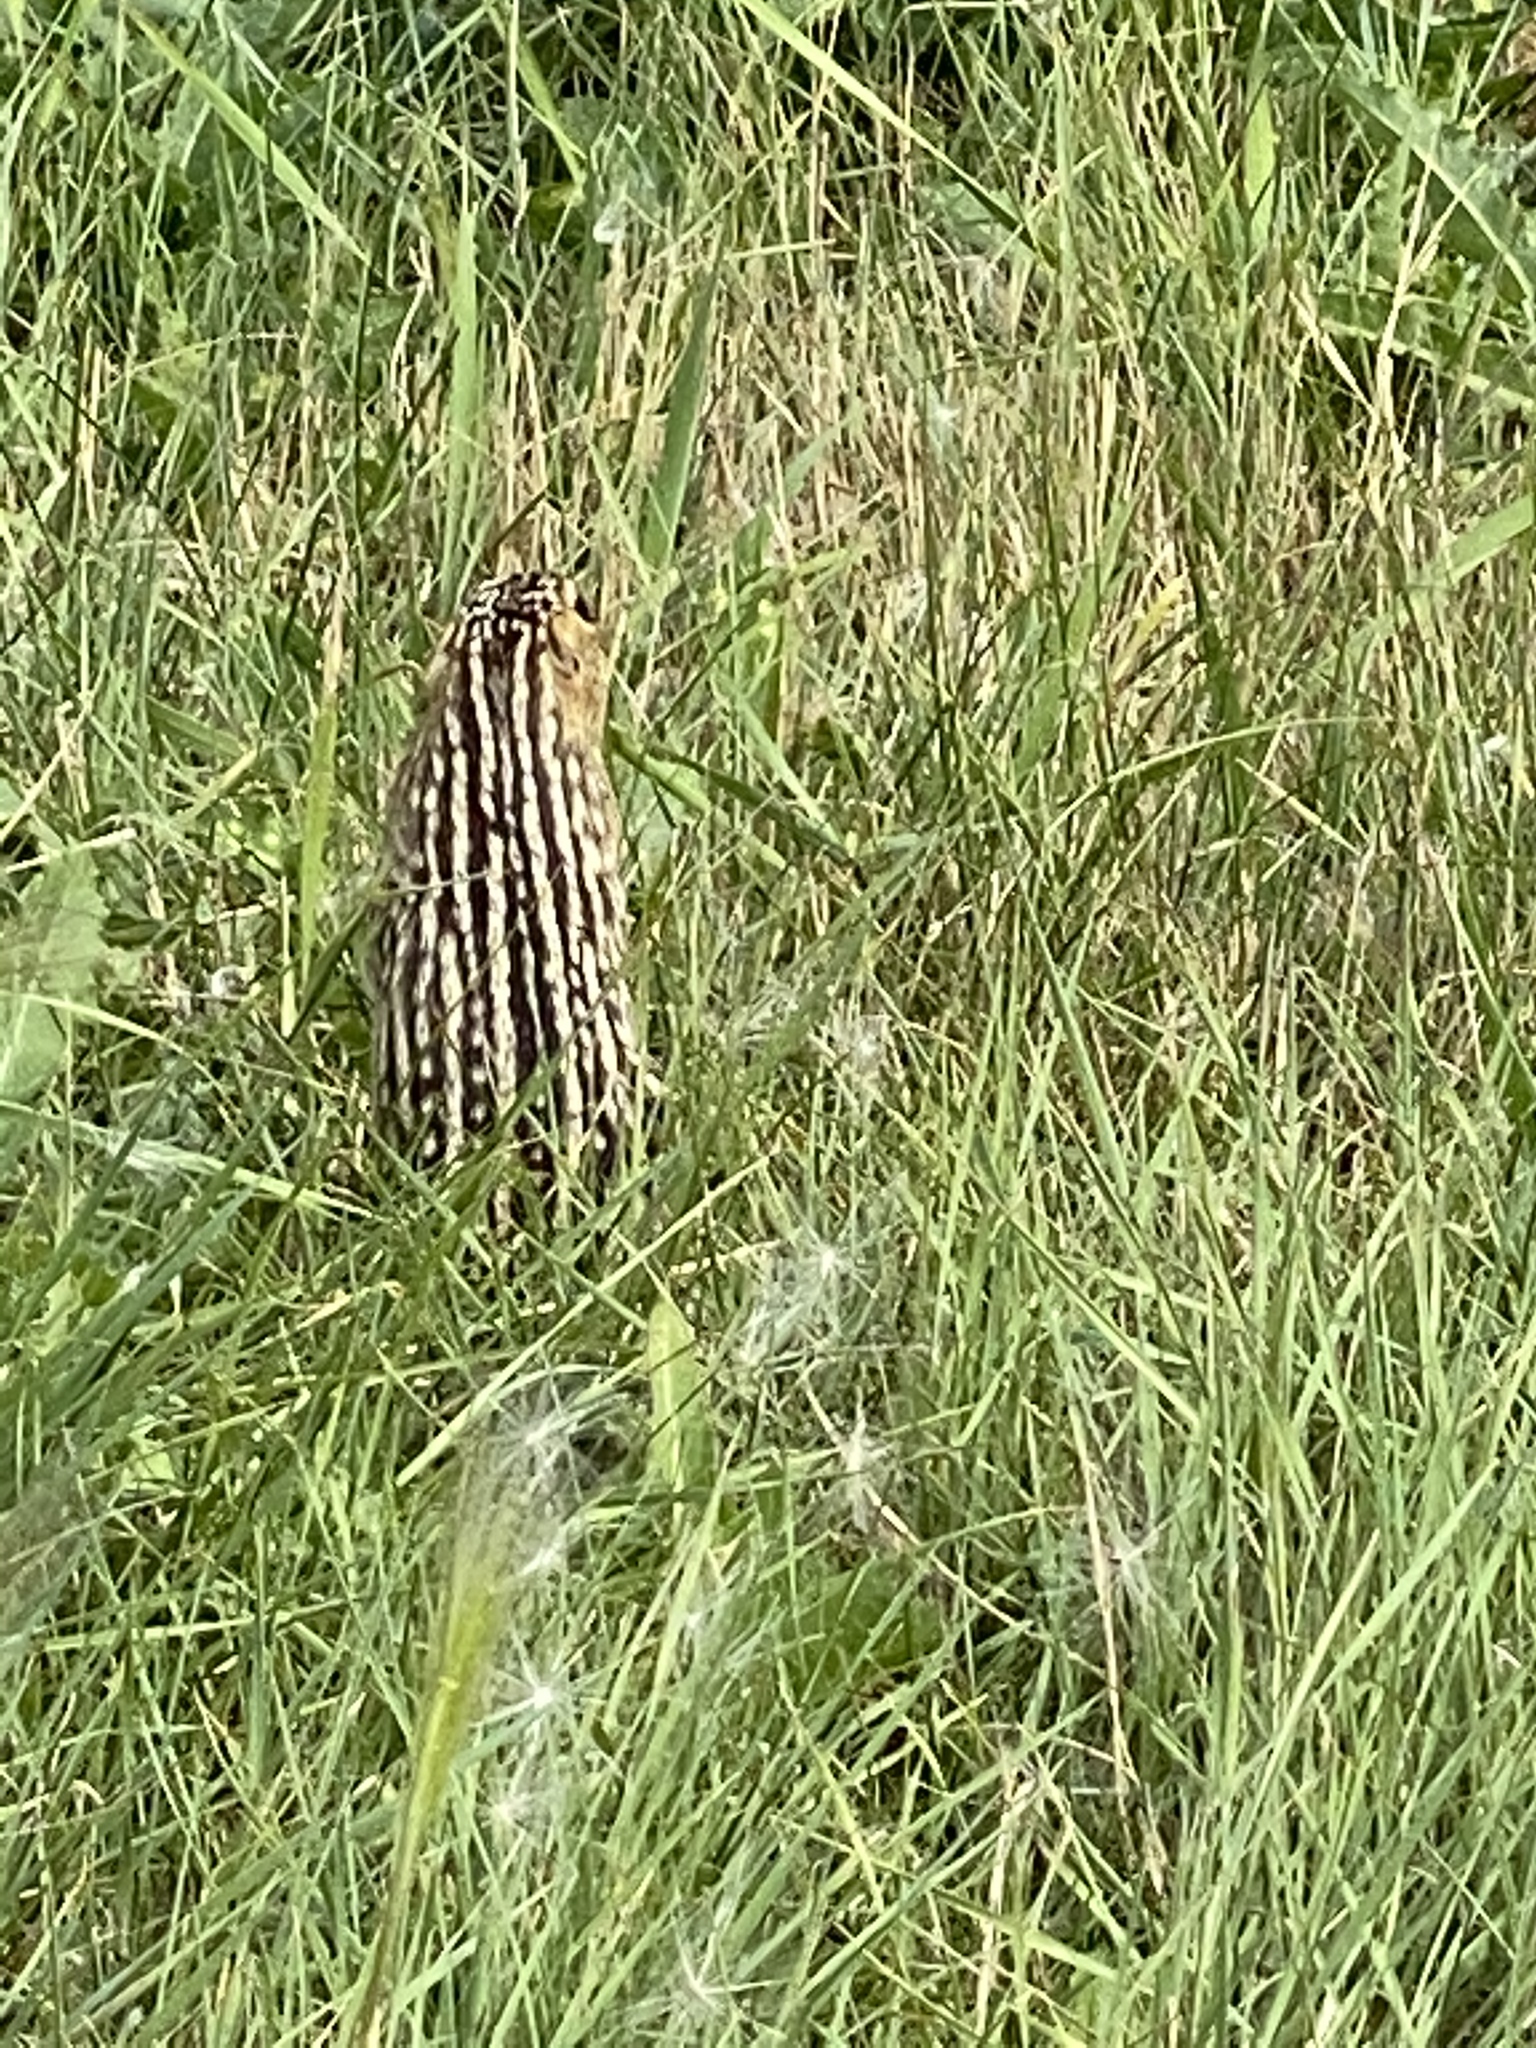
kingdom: Animalia
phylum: Chordata
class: Mammalia
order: Rodentia
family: Sciuridae
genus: Ictidomys
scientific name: Ictidomys tridecemlineatus
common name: Thirteen-lined ground squirrel
